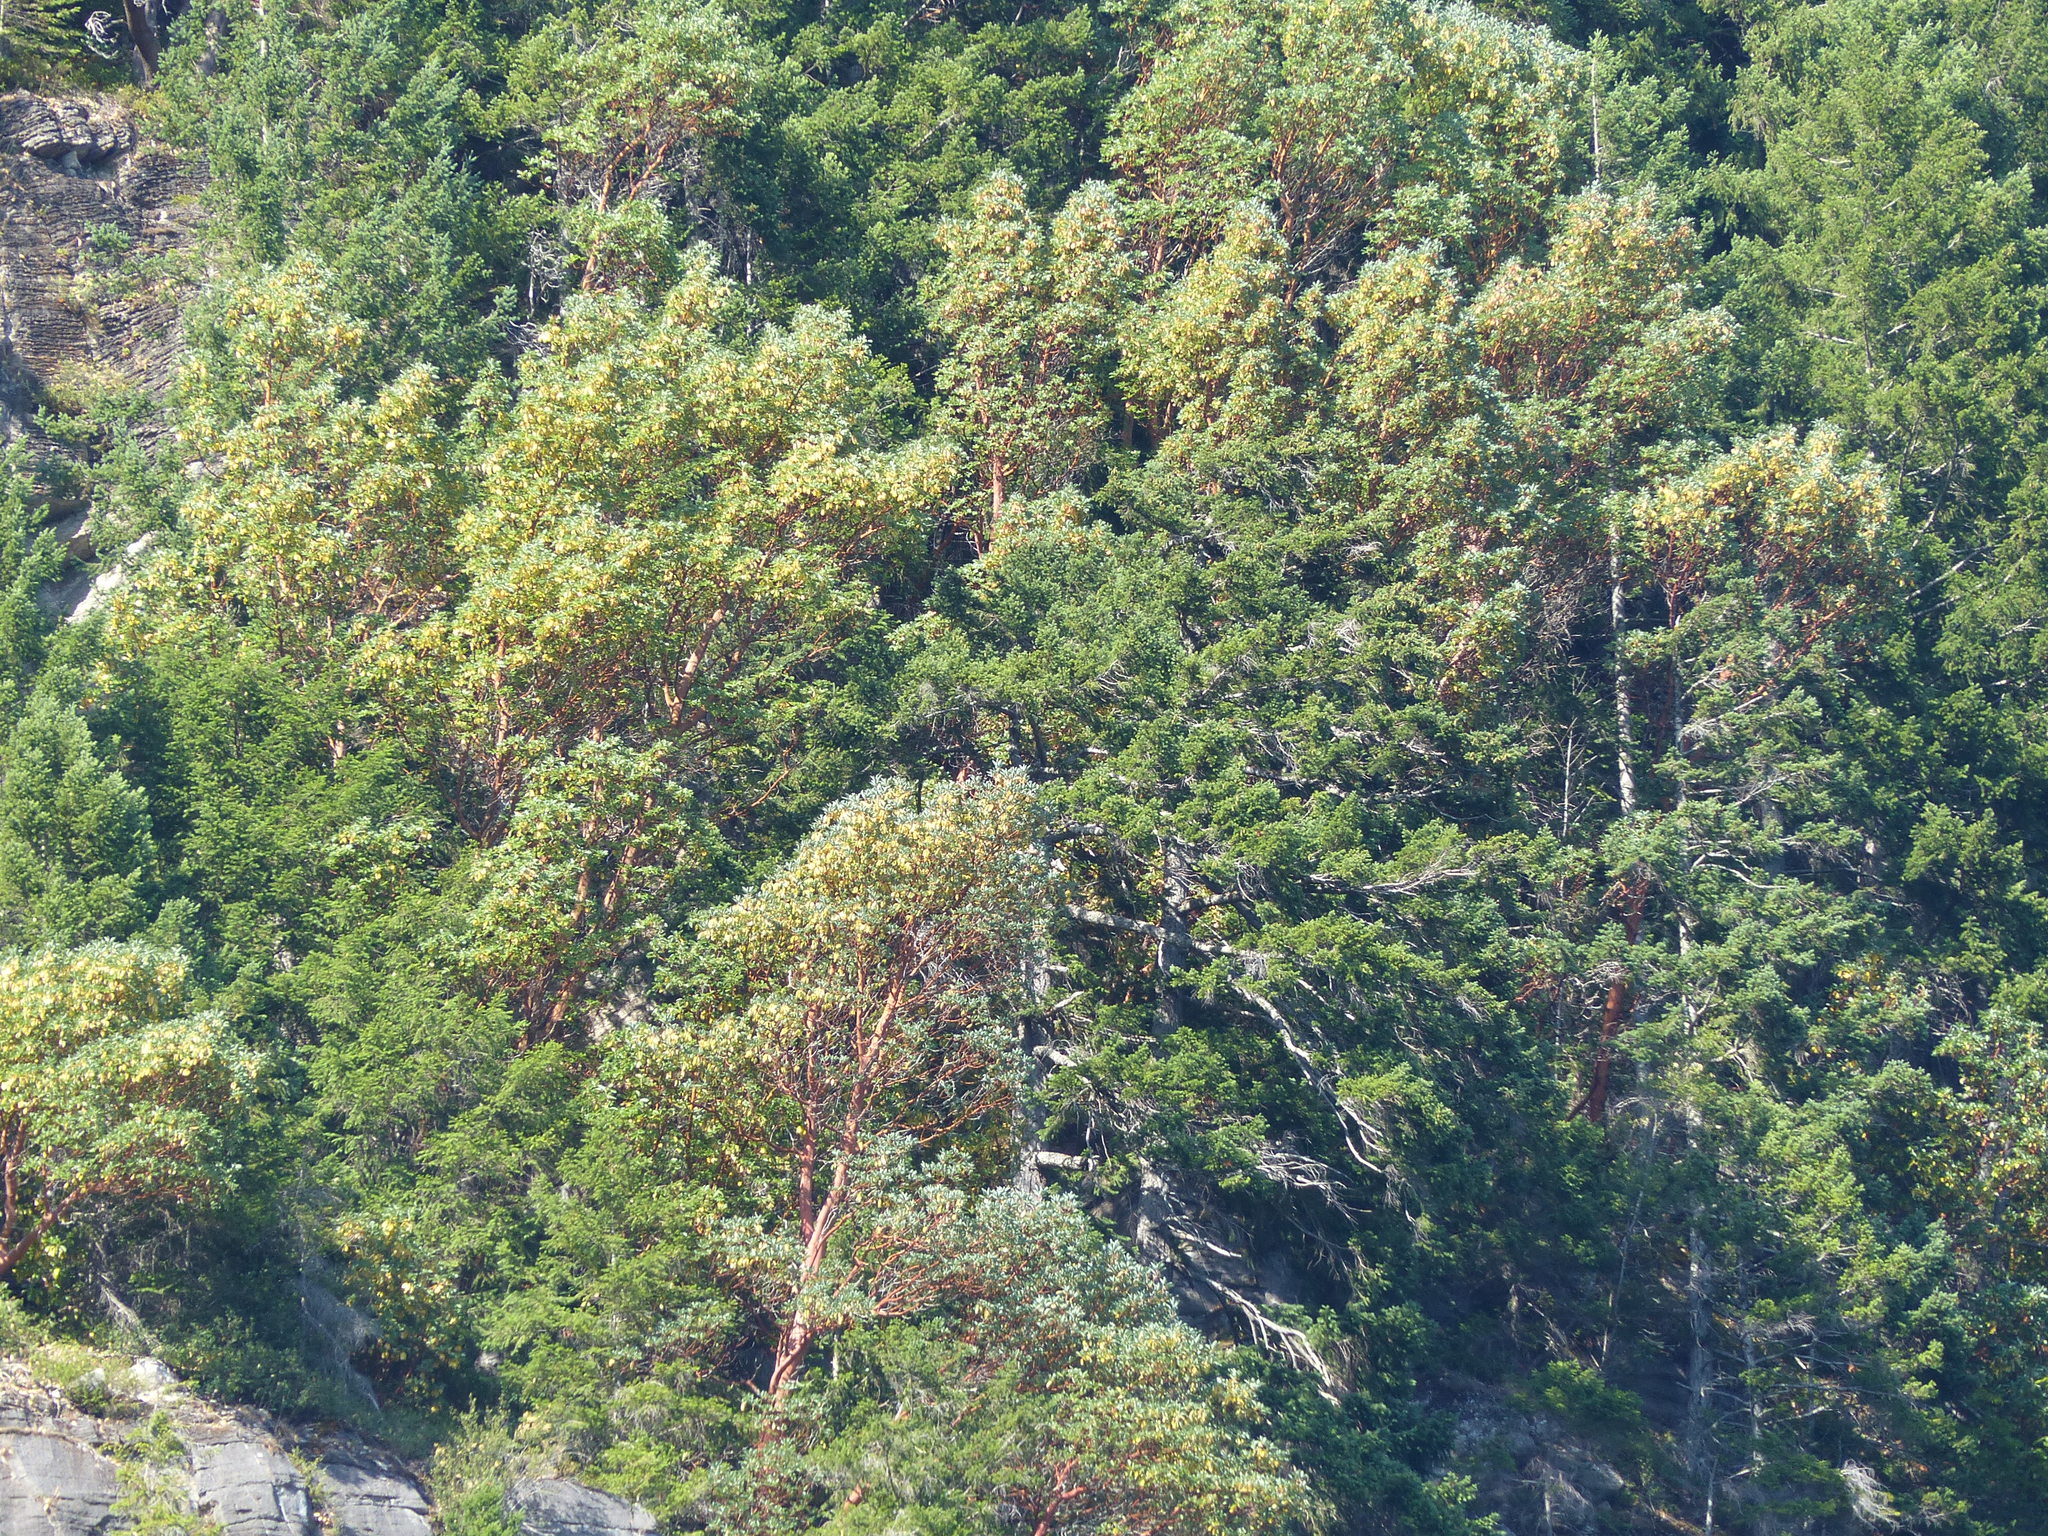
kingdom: Plantae
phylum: Tracheophyta
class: Magnoliopsida
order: Ericales
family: Ericaceae
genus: Arbutus
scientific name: Arbutus menziesii
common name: Pacific madrone
